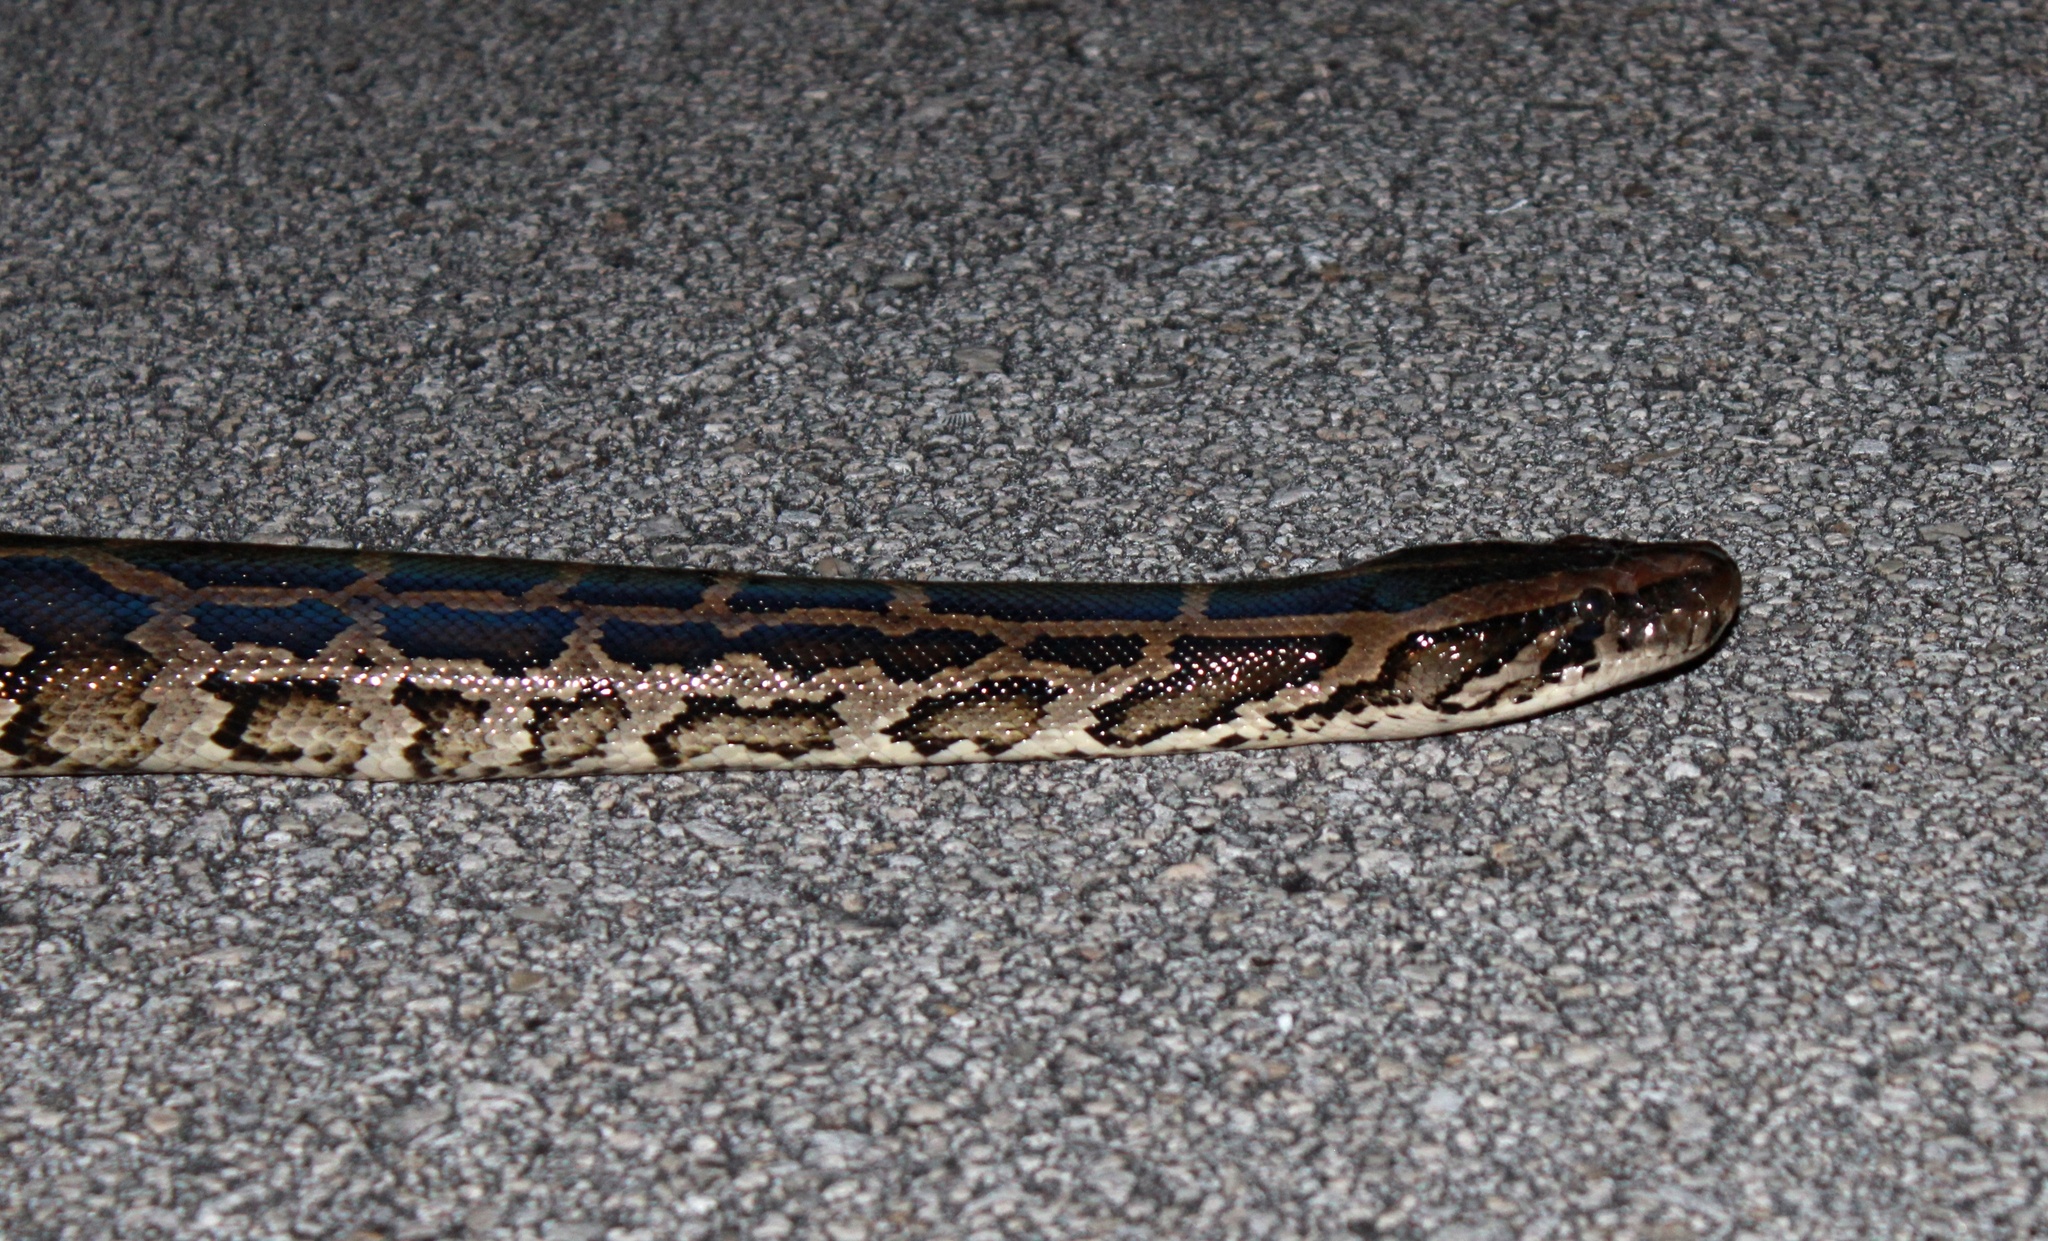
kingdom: Animalia
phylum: Chordata
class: Squamata
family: Pythonidae
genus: Python
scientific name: Python bivittatus
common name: Burmese python
